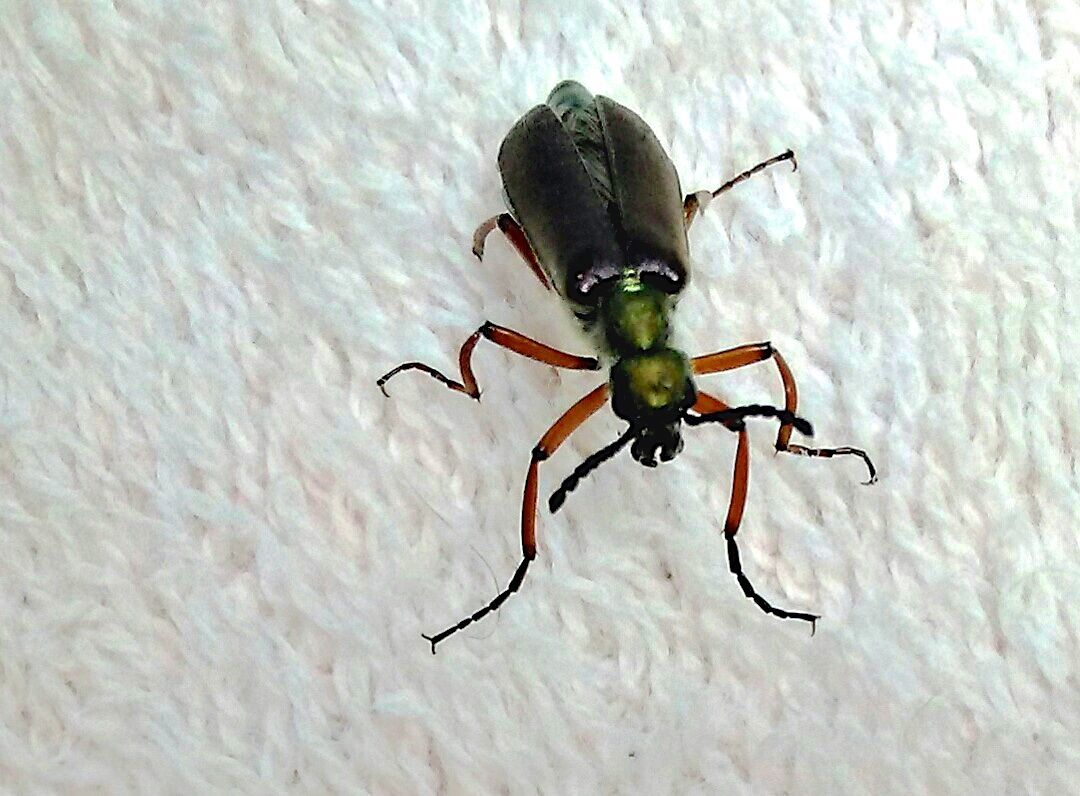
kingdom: Animalia
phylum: Arthropoda
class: Insecta
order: Coleoptera
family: Meloidae
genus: Lytta
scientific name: Lytta aenea
